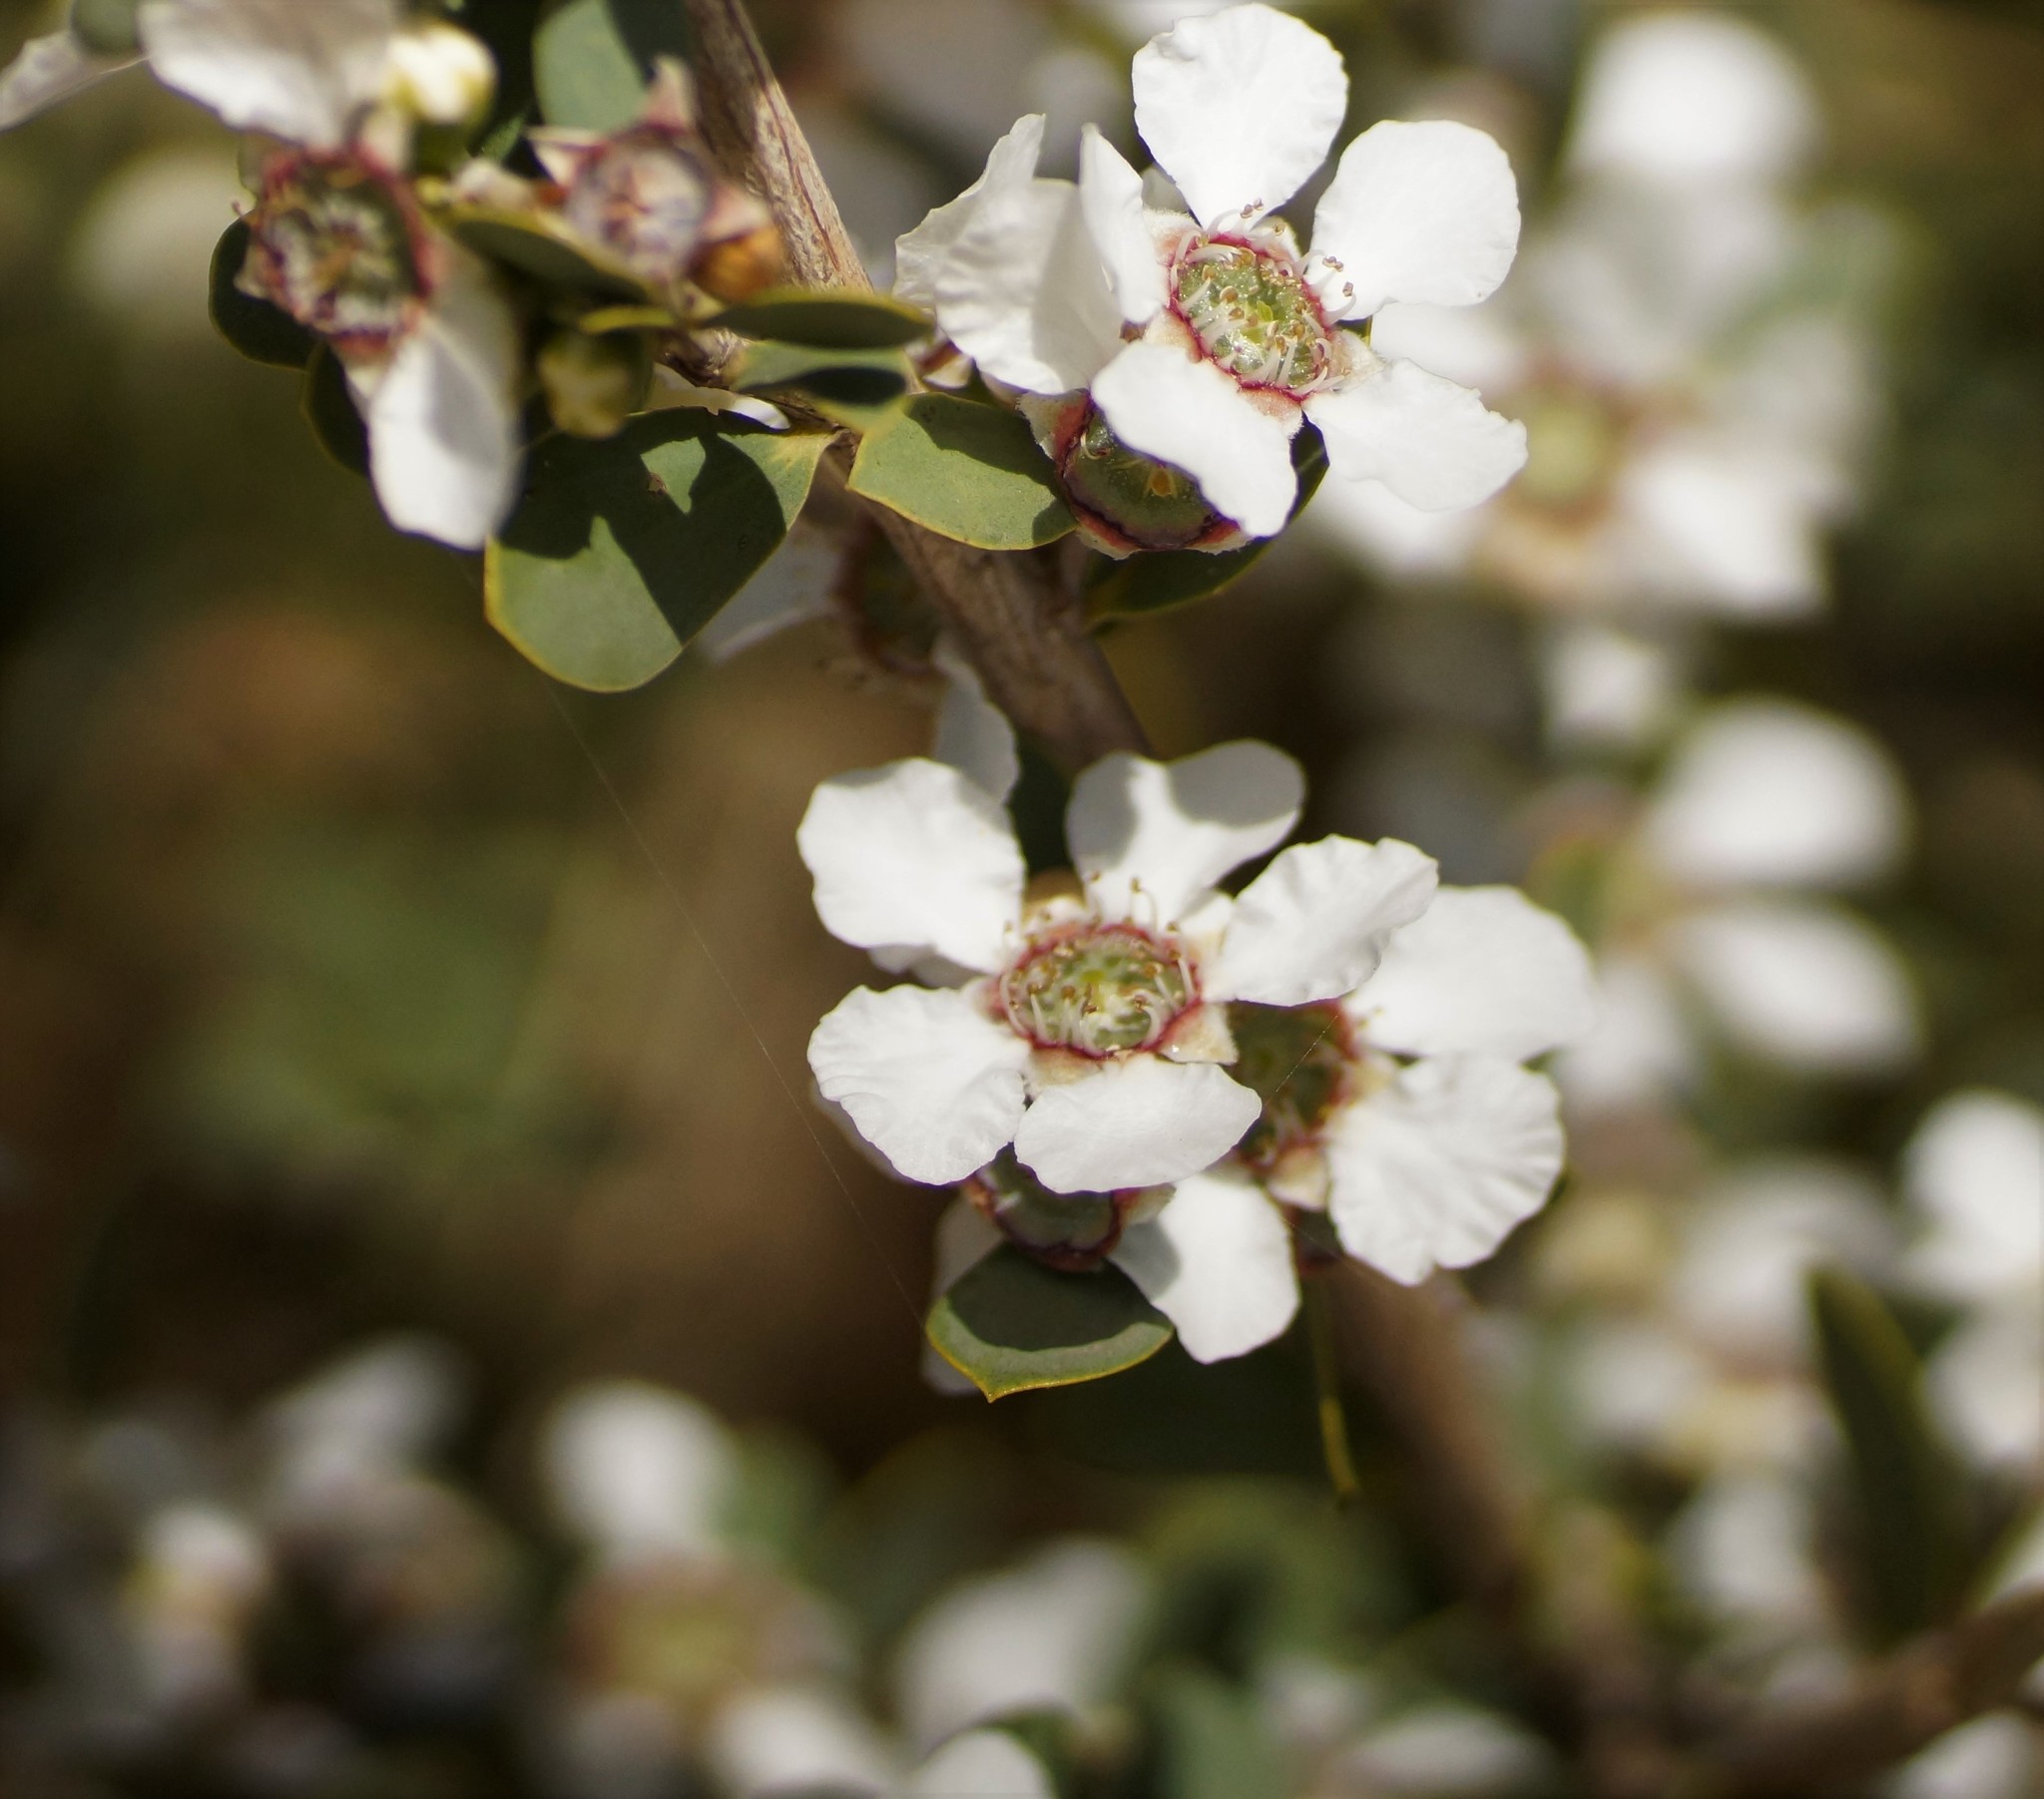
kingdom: Plantae
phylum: Tracheophyta
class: Magnoliopsida
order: Myrtales
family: Myrtaceae
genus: Leptospermum
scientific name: Leptospermum laevigatum
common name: Australian teatree
